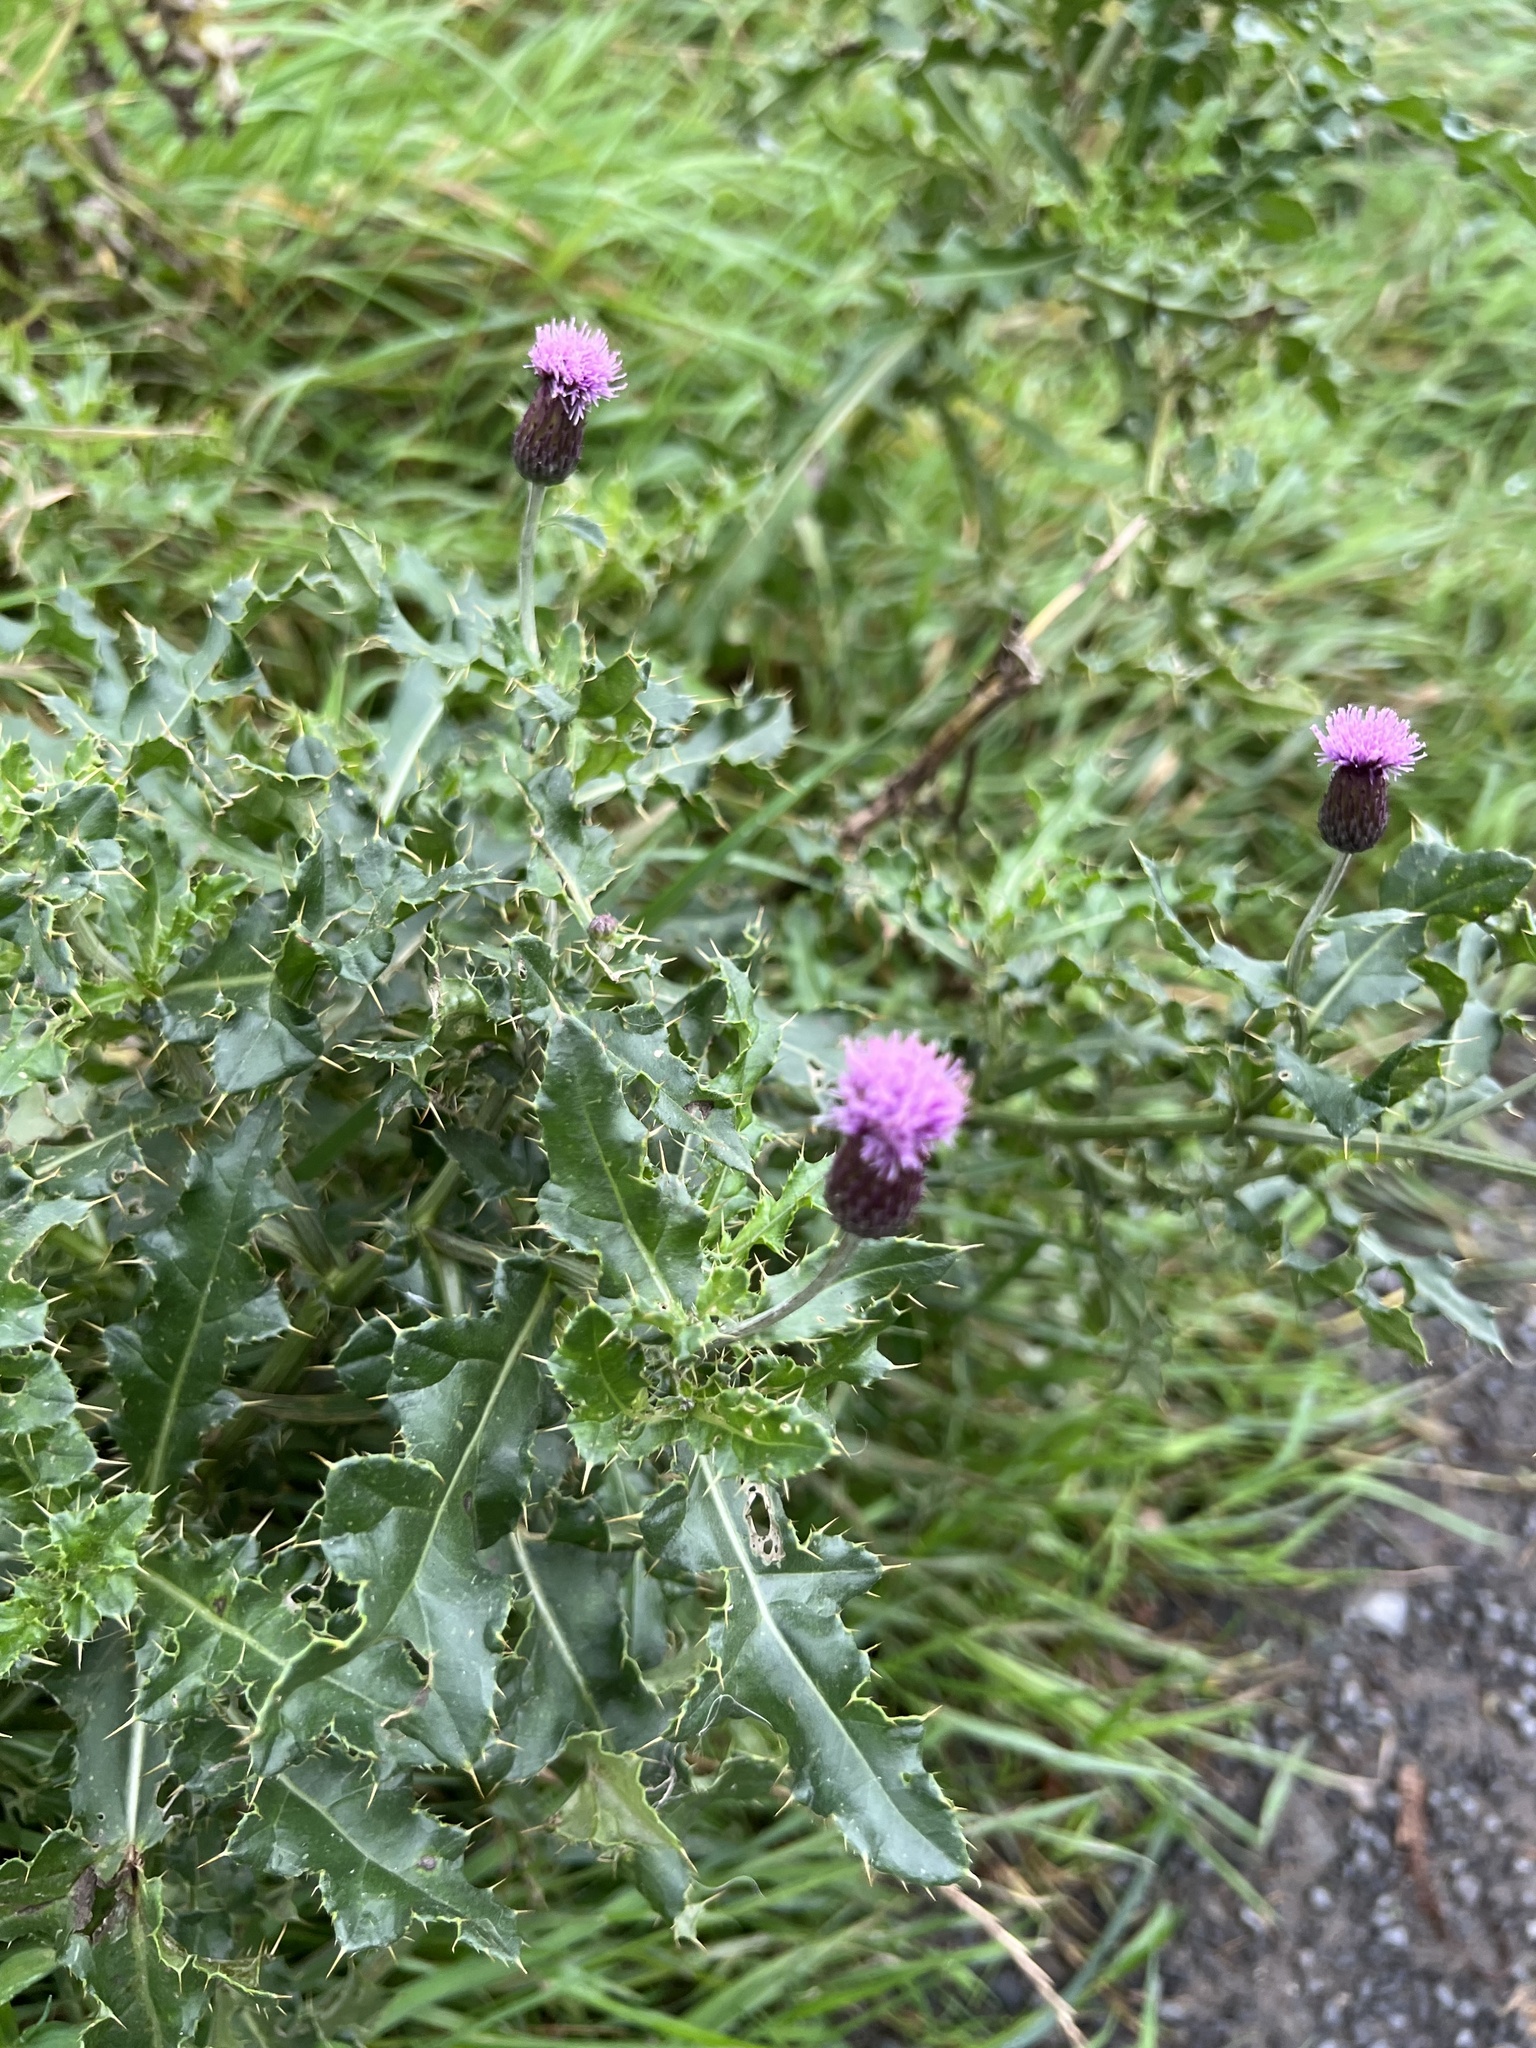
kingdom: Plantae
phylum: Tracheophyta
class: Magnoliopsida
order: Asterales
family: Asteraceae
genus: Cirsium
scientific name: Cirsium arvense
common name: Creeping thistle
